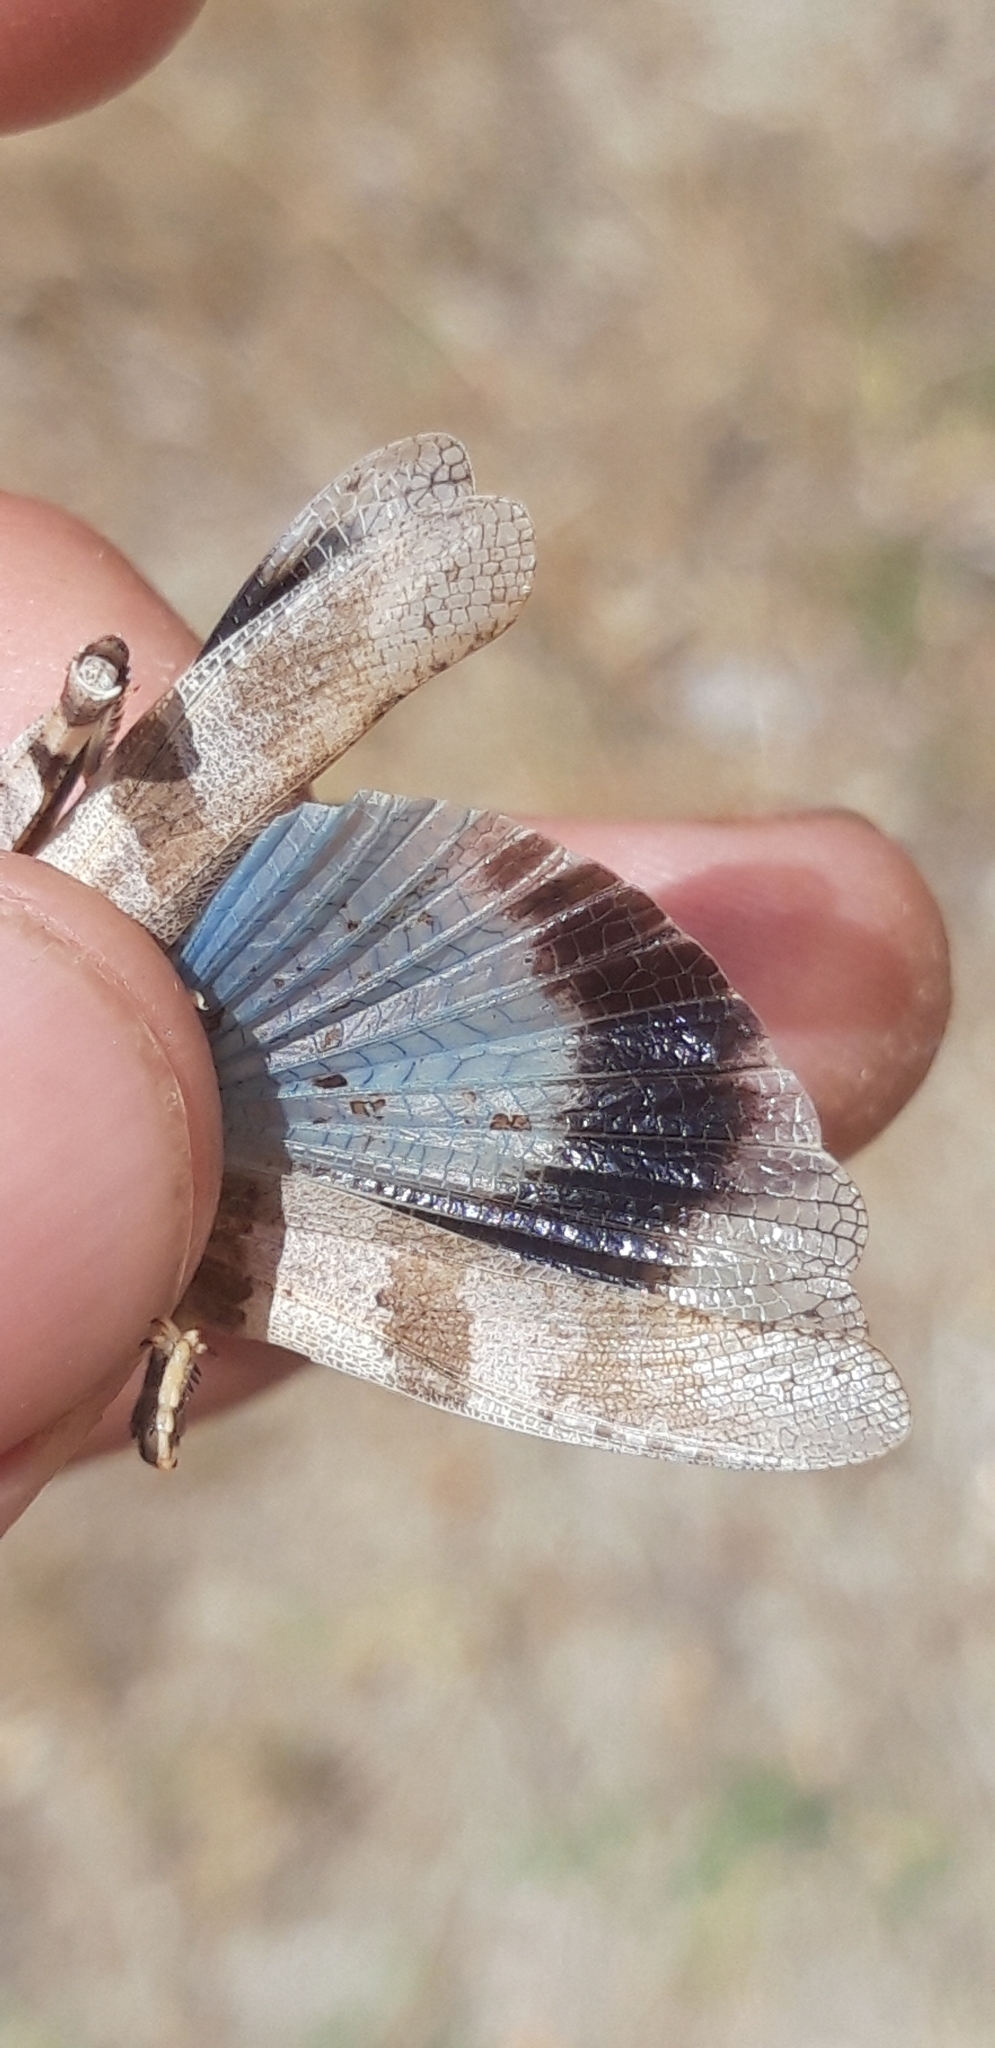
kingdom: Animalia
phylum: Arthropoda
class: Insecta
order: Orthoptera
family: Acrididae
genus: Oedipoda
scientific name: Oedipoda caerulescens
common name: Blue-winged grasshopper
